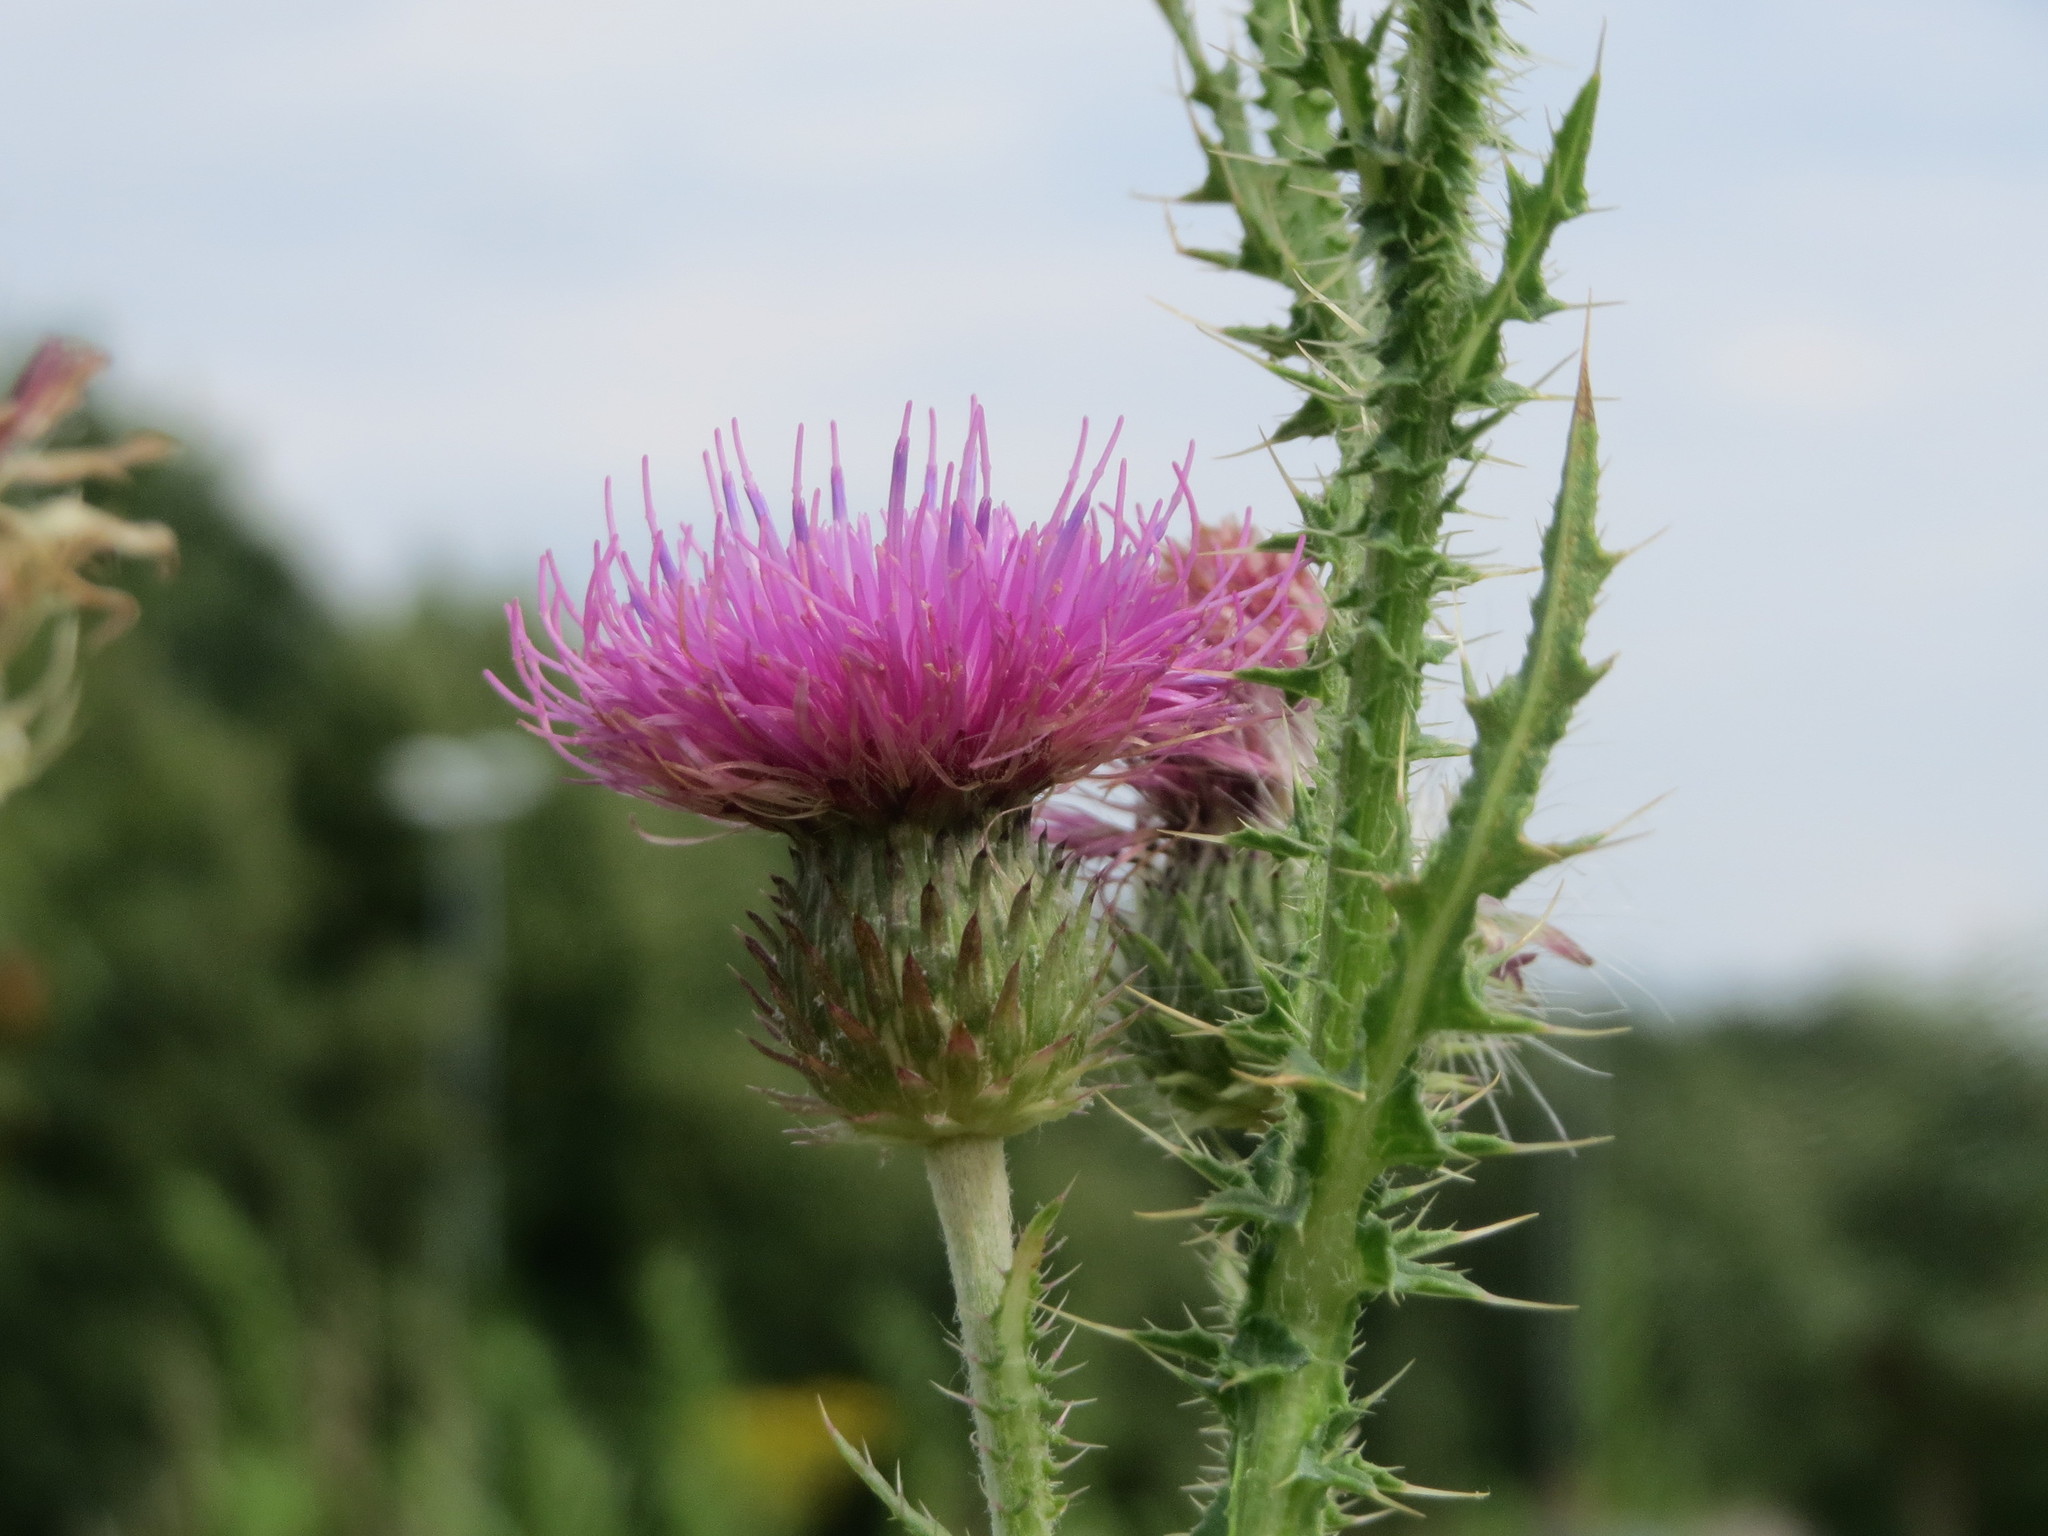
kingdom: Plantae
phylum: Tracheophyta
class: Magnoliopsida
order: Asterales
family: Asteraceae
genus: Carduus
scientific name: Carduus acanthoides
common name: Plumeless thistle
